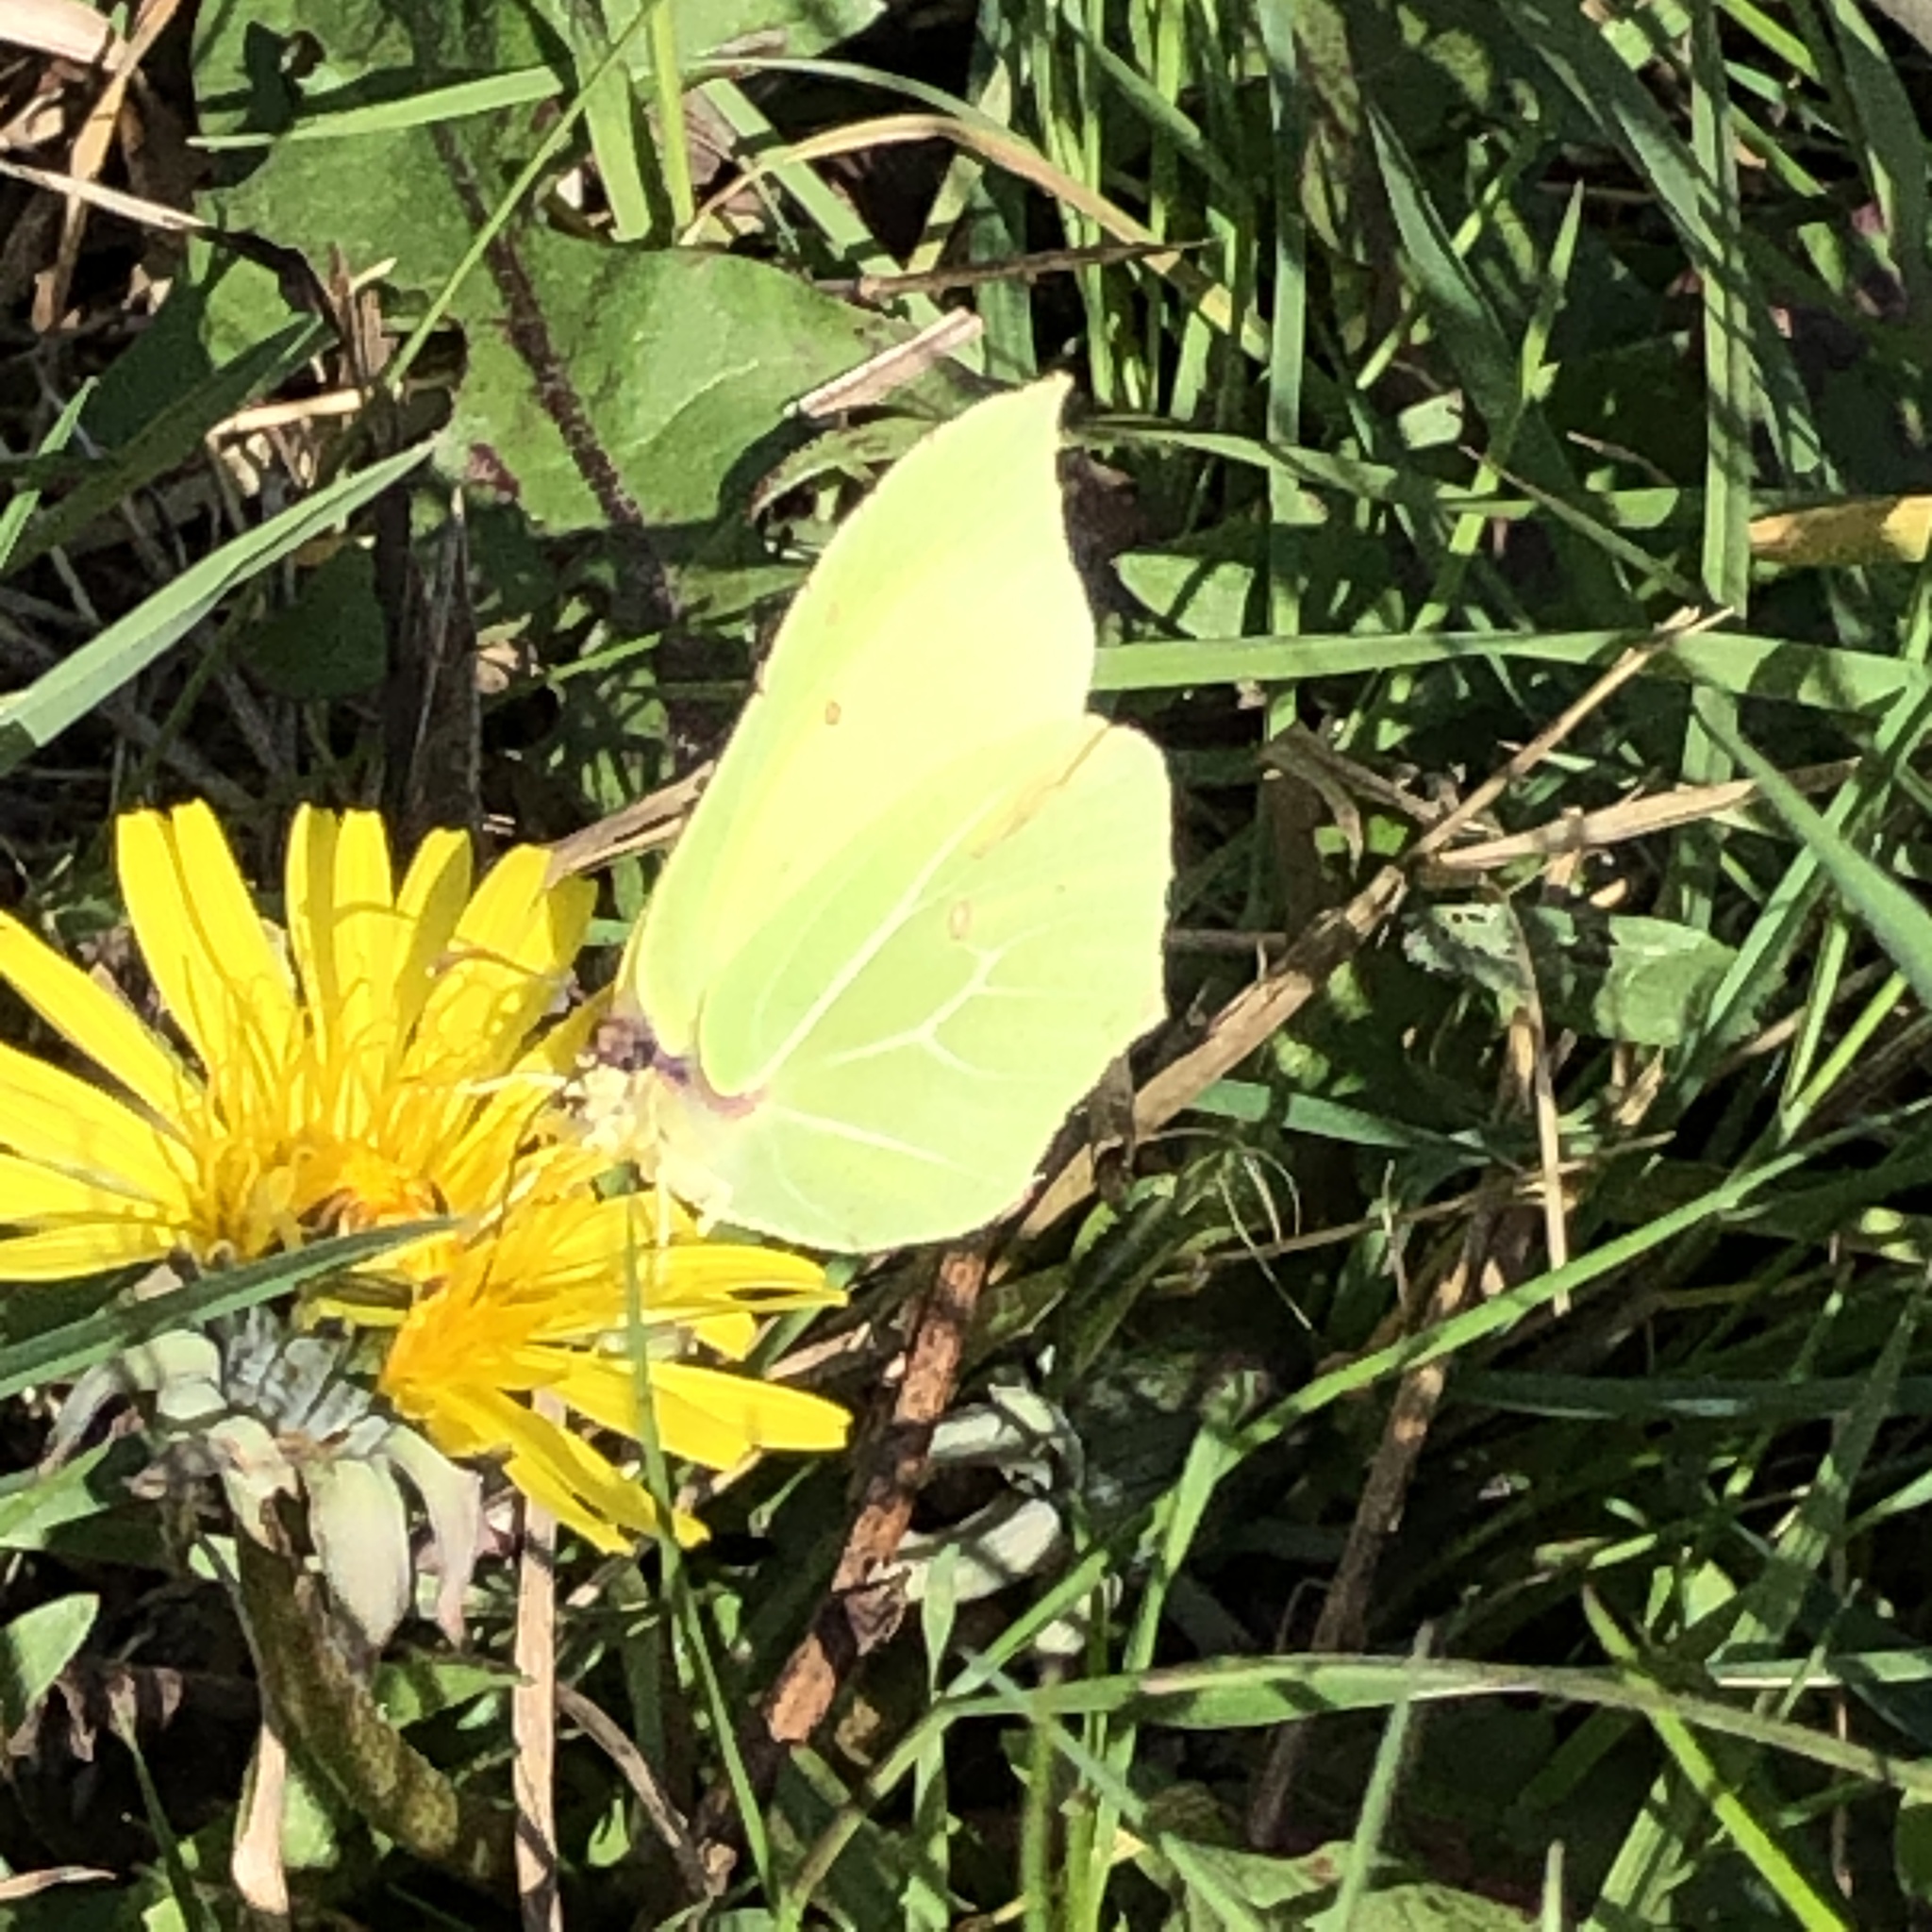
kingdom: Animalia
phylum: Arthropoda
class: Insecta
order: Lepidoptera
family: Pieridae
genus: Gonepteryx
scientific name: Gonepteryx rhamni
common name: Brimstone
